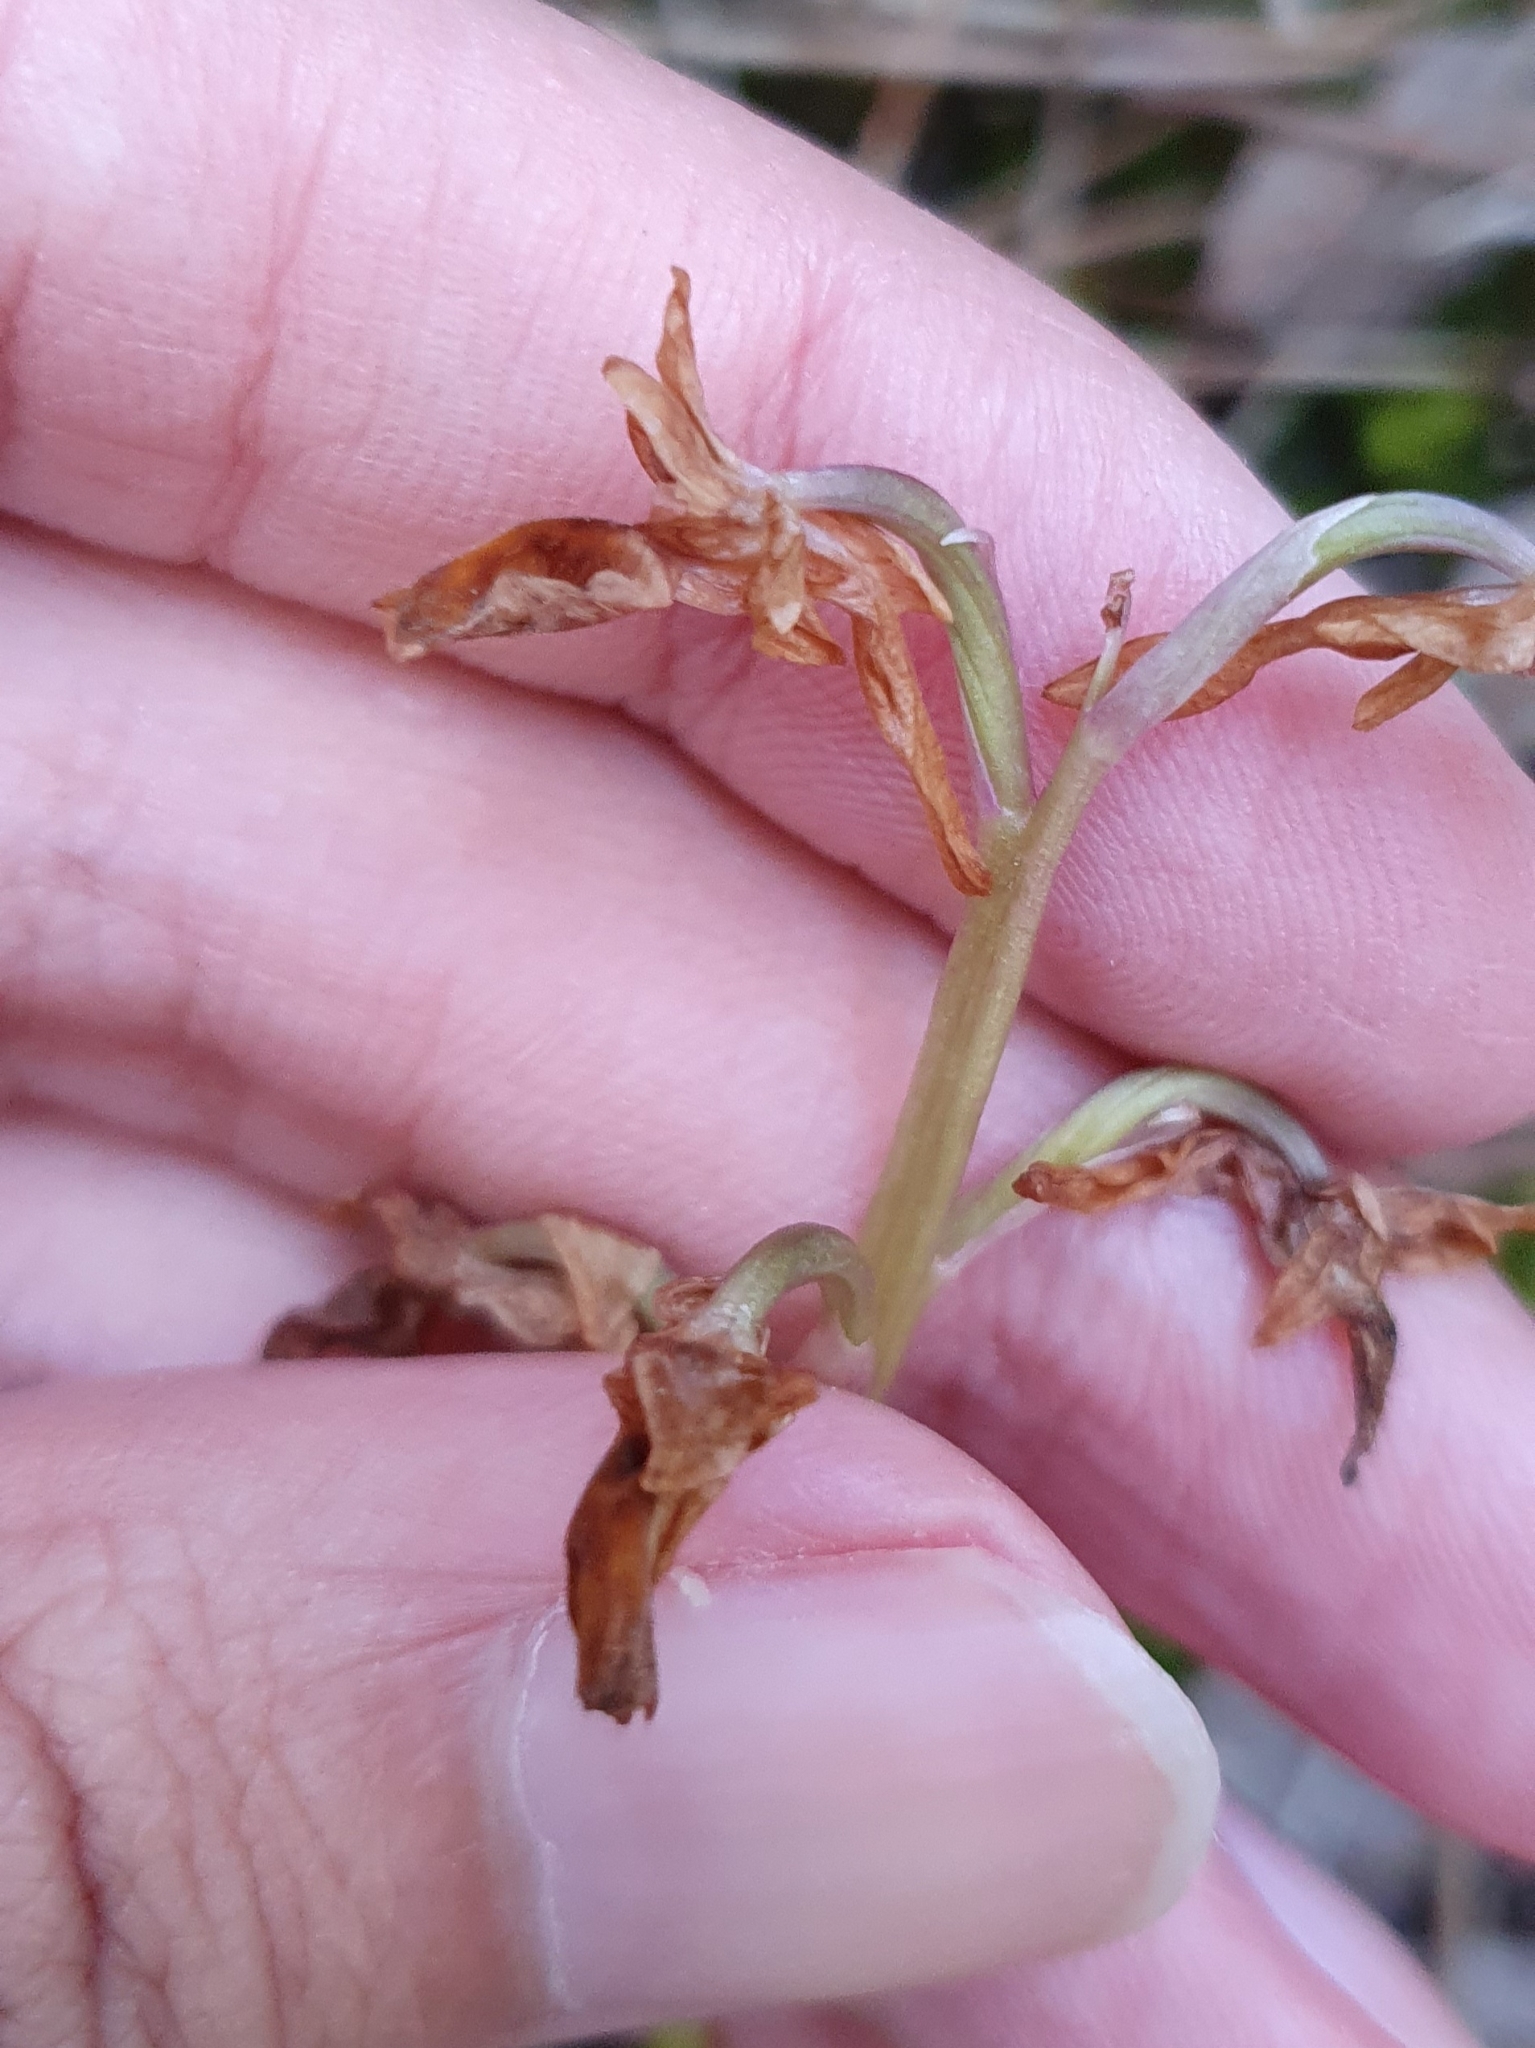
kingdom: Plantae
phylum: Tracheophyta
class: Liliopsida
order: Asparagales
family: Orchidaceae
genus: Orchis
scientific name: Orchis laeta
